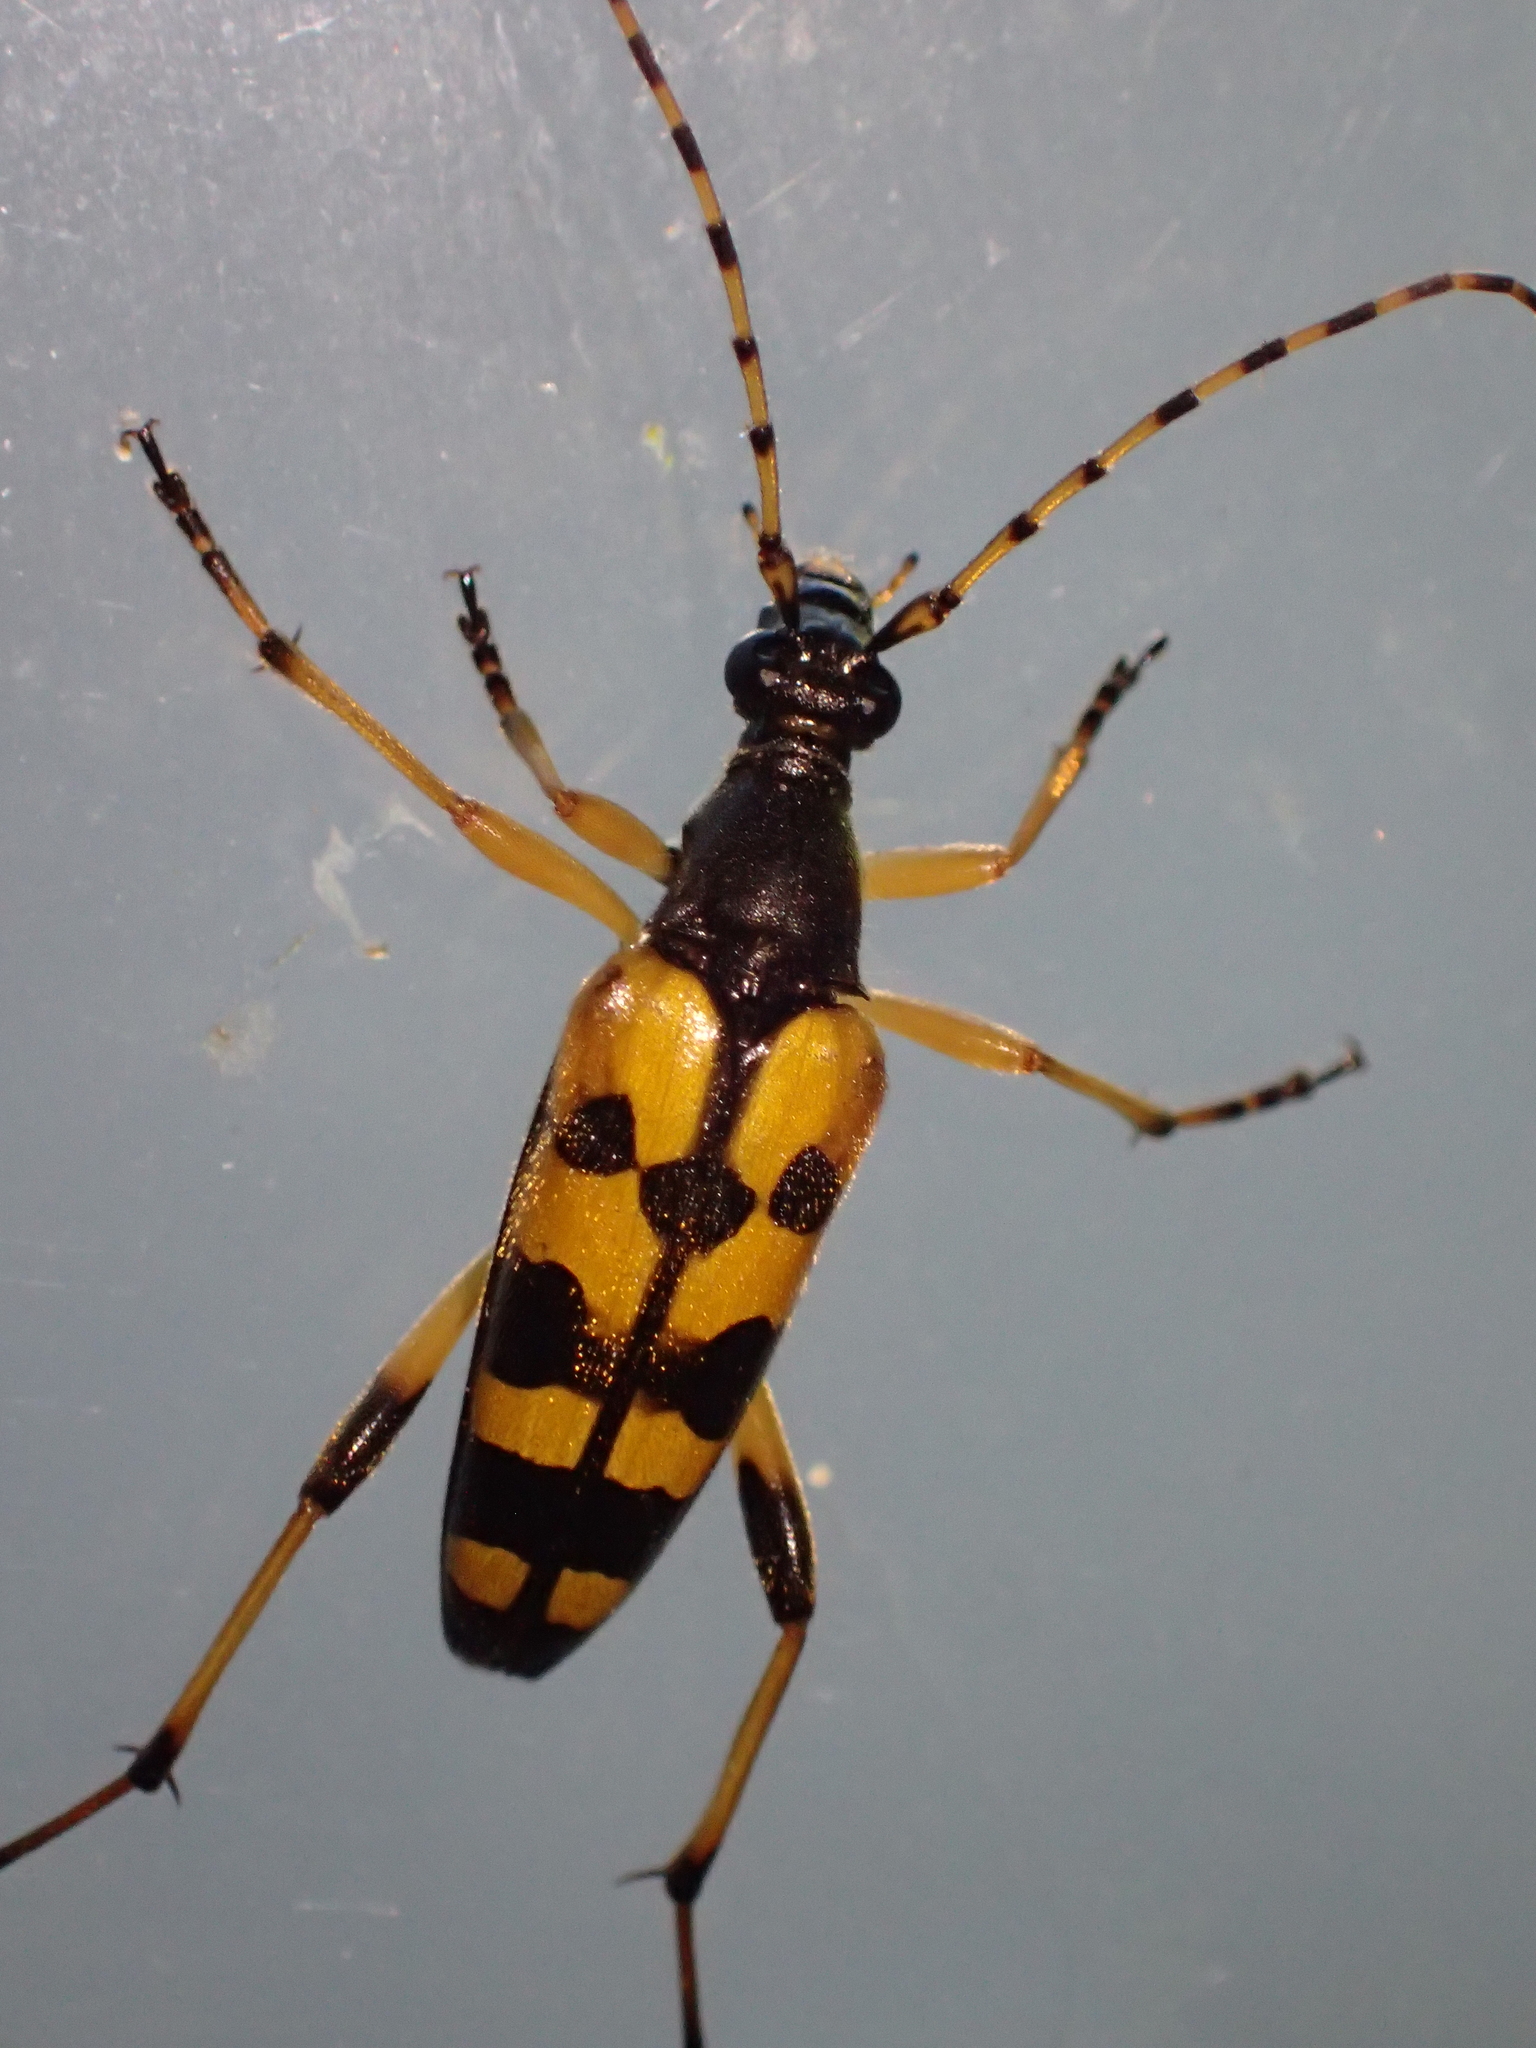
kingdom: Animalia
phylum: Arthropoda
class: Insecta
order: Coleoptera
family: Cerambycidae
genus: Rutpela
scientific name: Rutpela maculata
